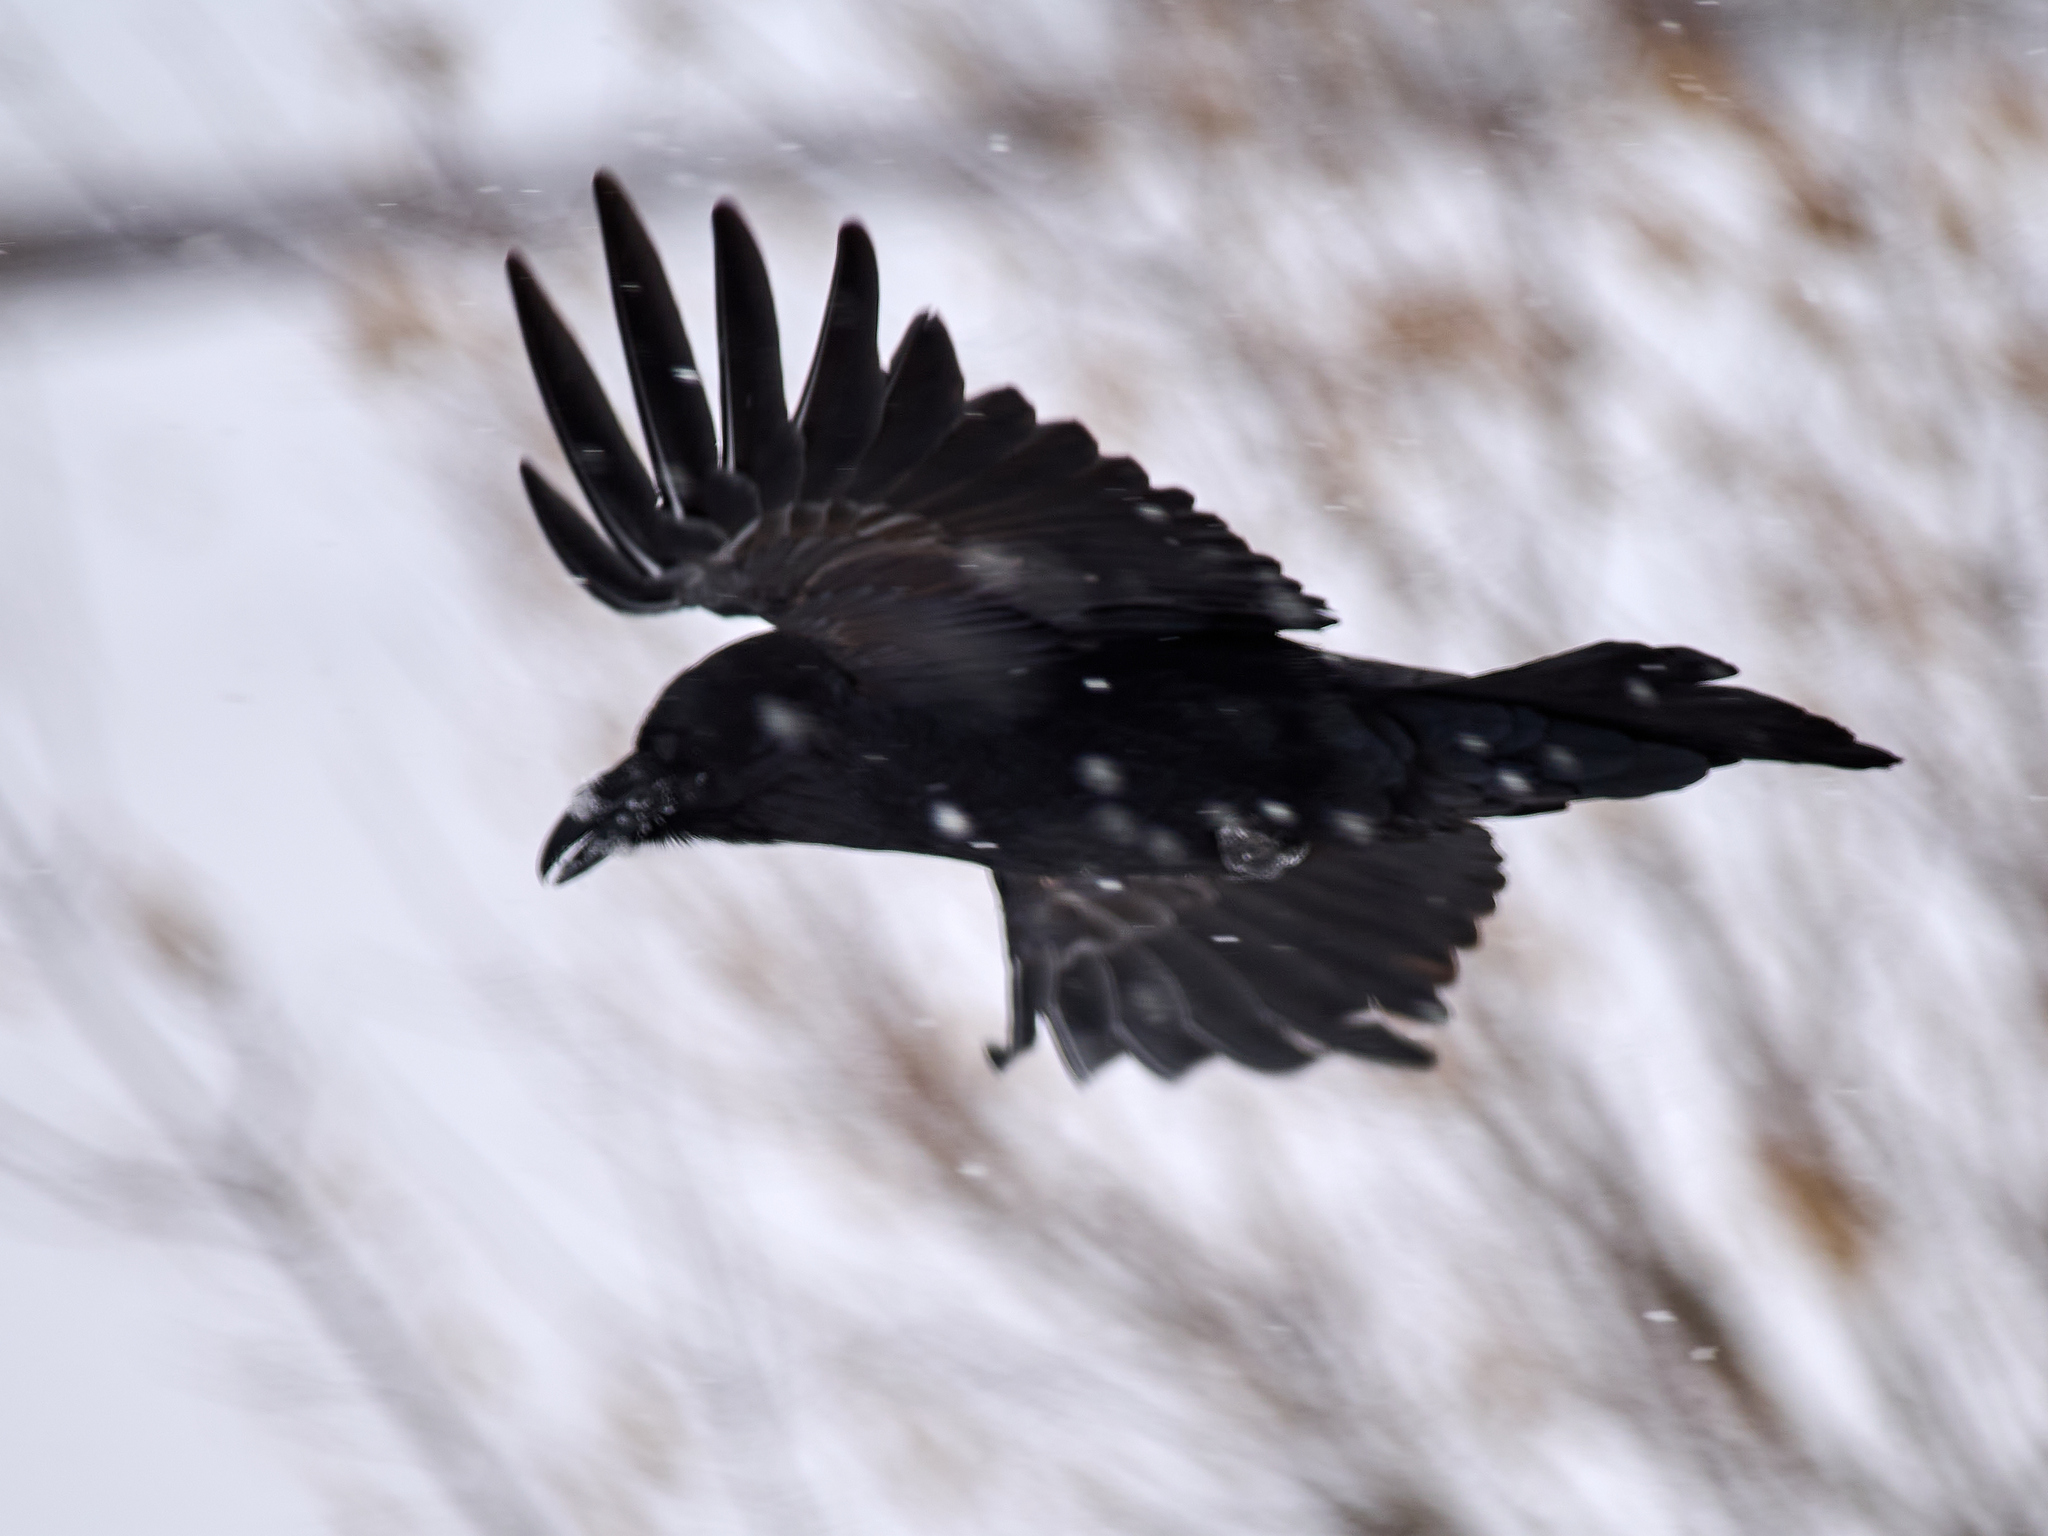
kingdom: Animalia
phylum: Chordata
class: Aves
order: Passeriformes
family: Corvidae
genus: Corvus
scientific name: Corvus corax
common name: Common raven
